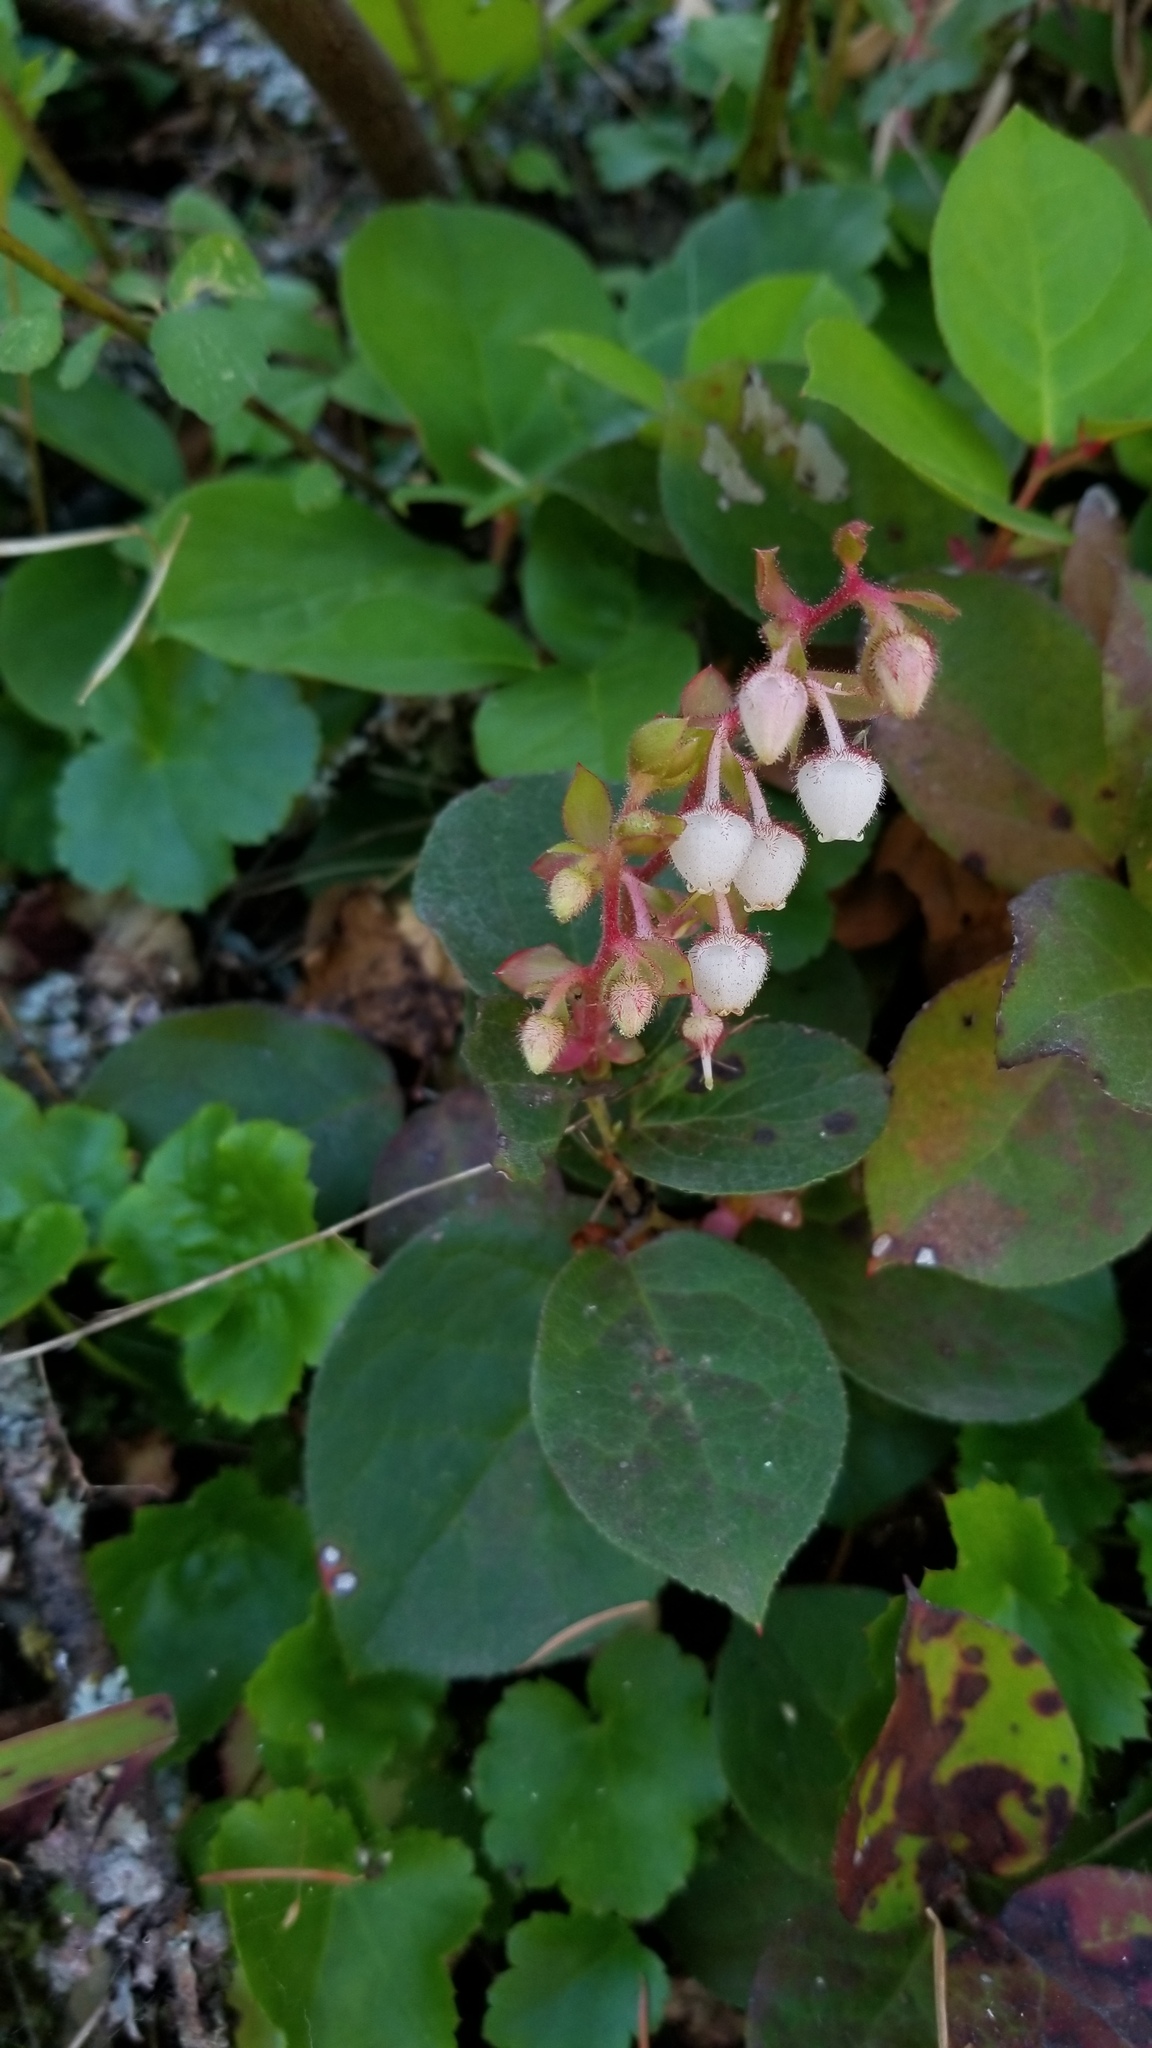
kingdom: Plantae
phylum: Tracheophyta
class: Magnoliopsida
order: Ericales
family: Ericaceae
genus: Gaultheria
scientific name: Gaultheria shallon
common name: Shallon
